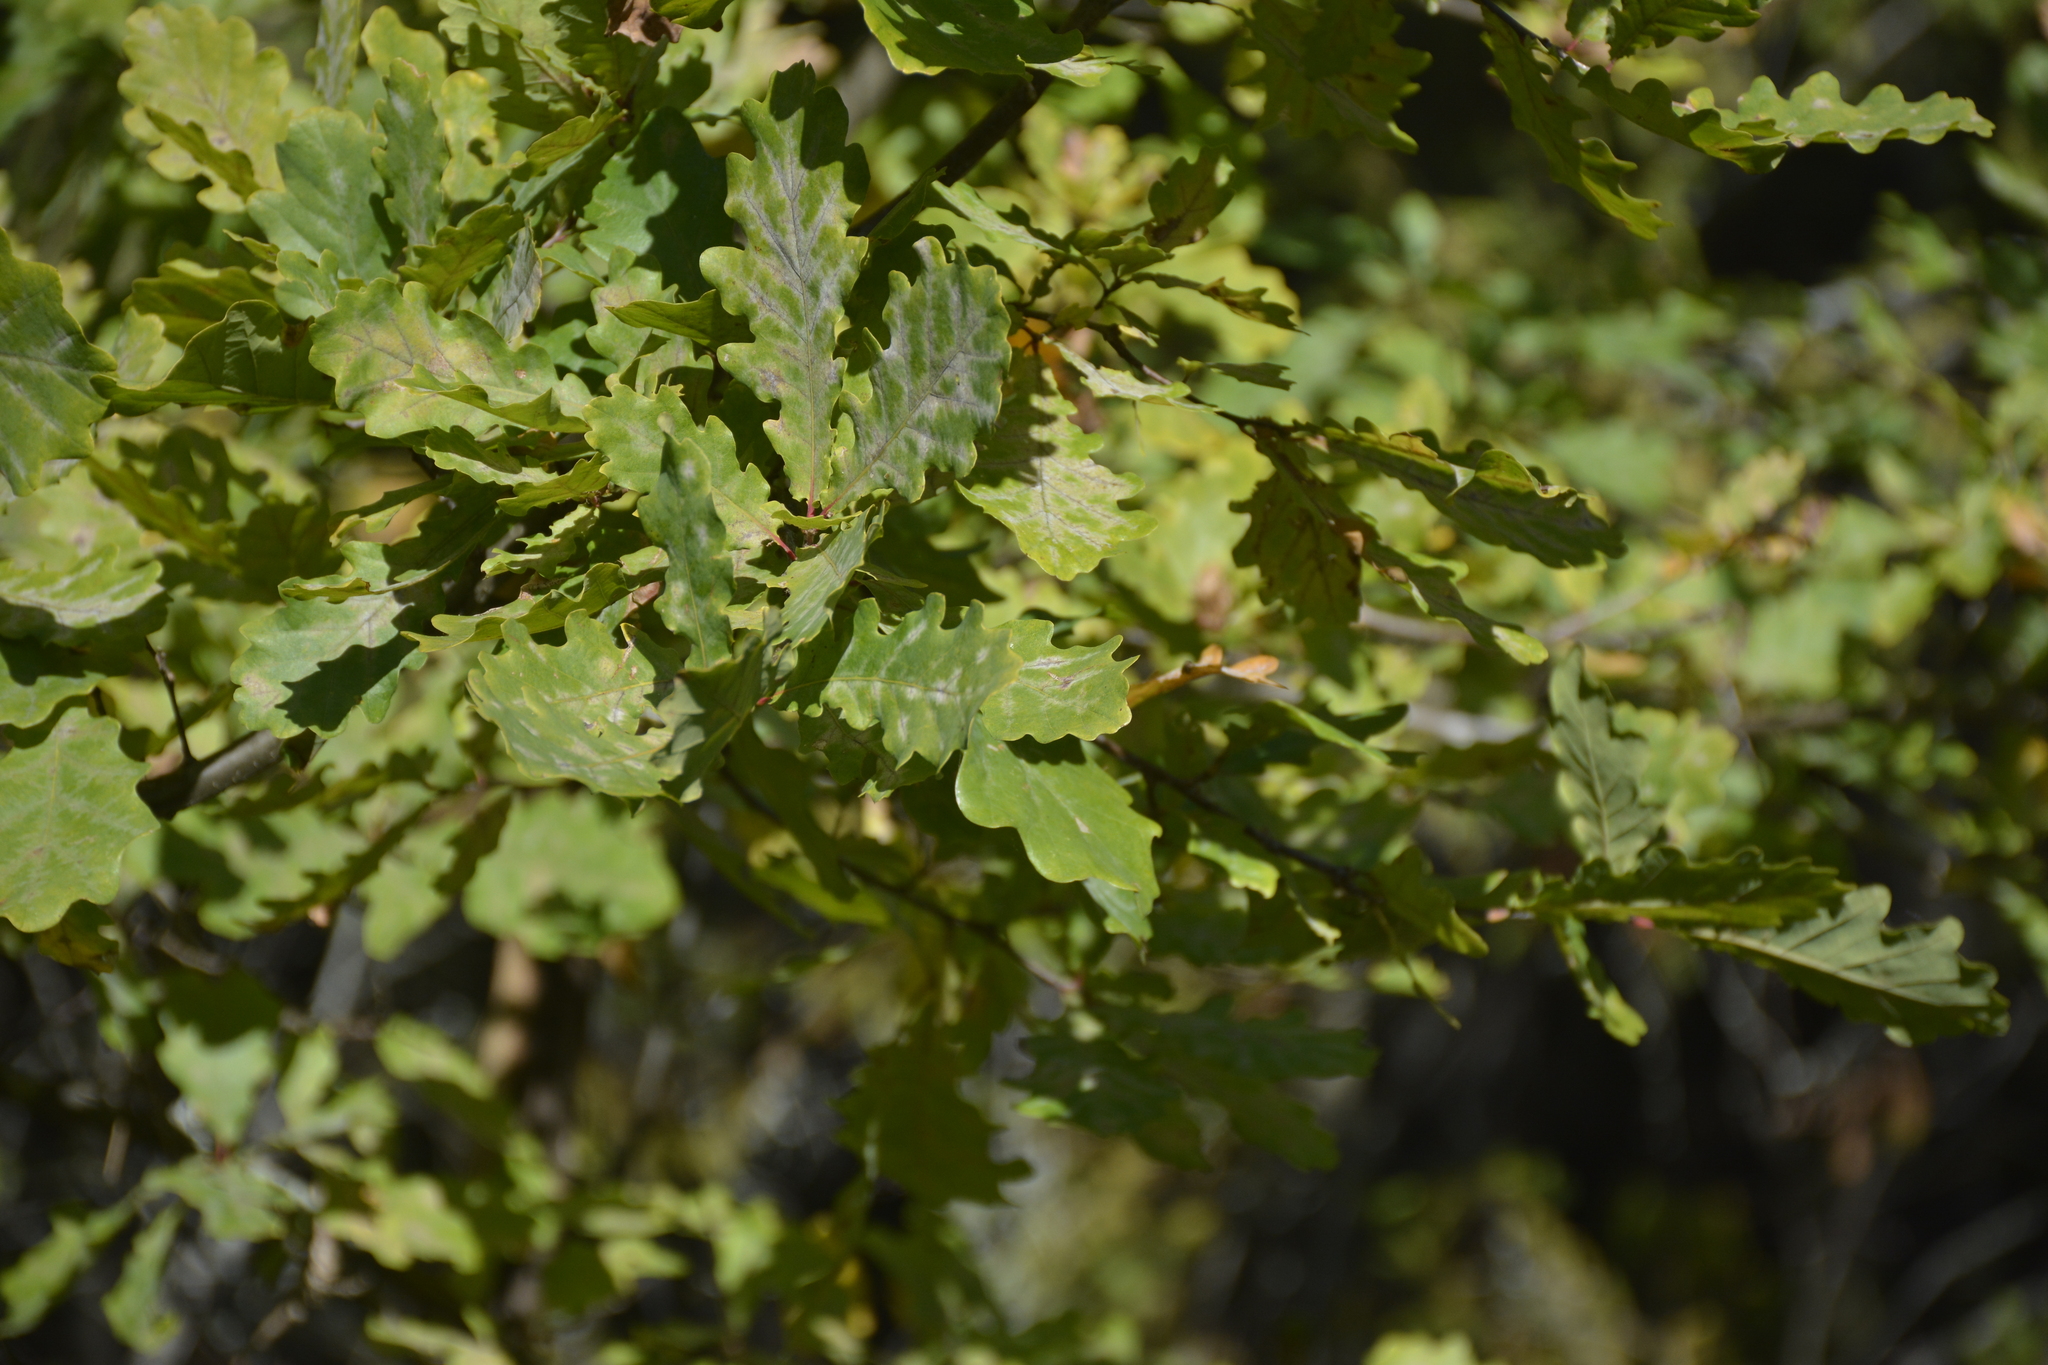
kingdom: Plantae
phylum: Tracheophyta
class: Magnoliopsida
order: Fagales
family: Fagaceae
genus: Quercus
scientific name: Quercus robur
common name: Pedunculate oak
